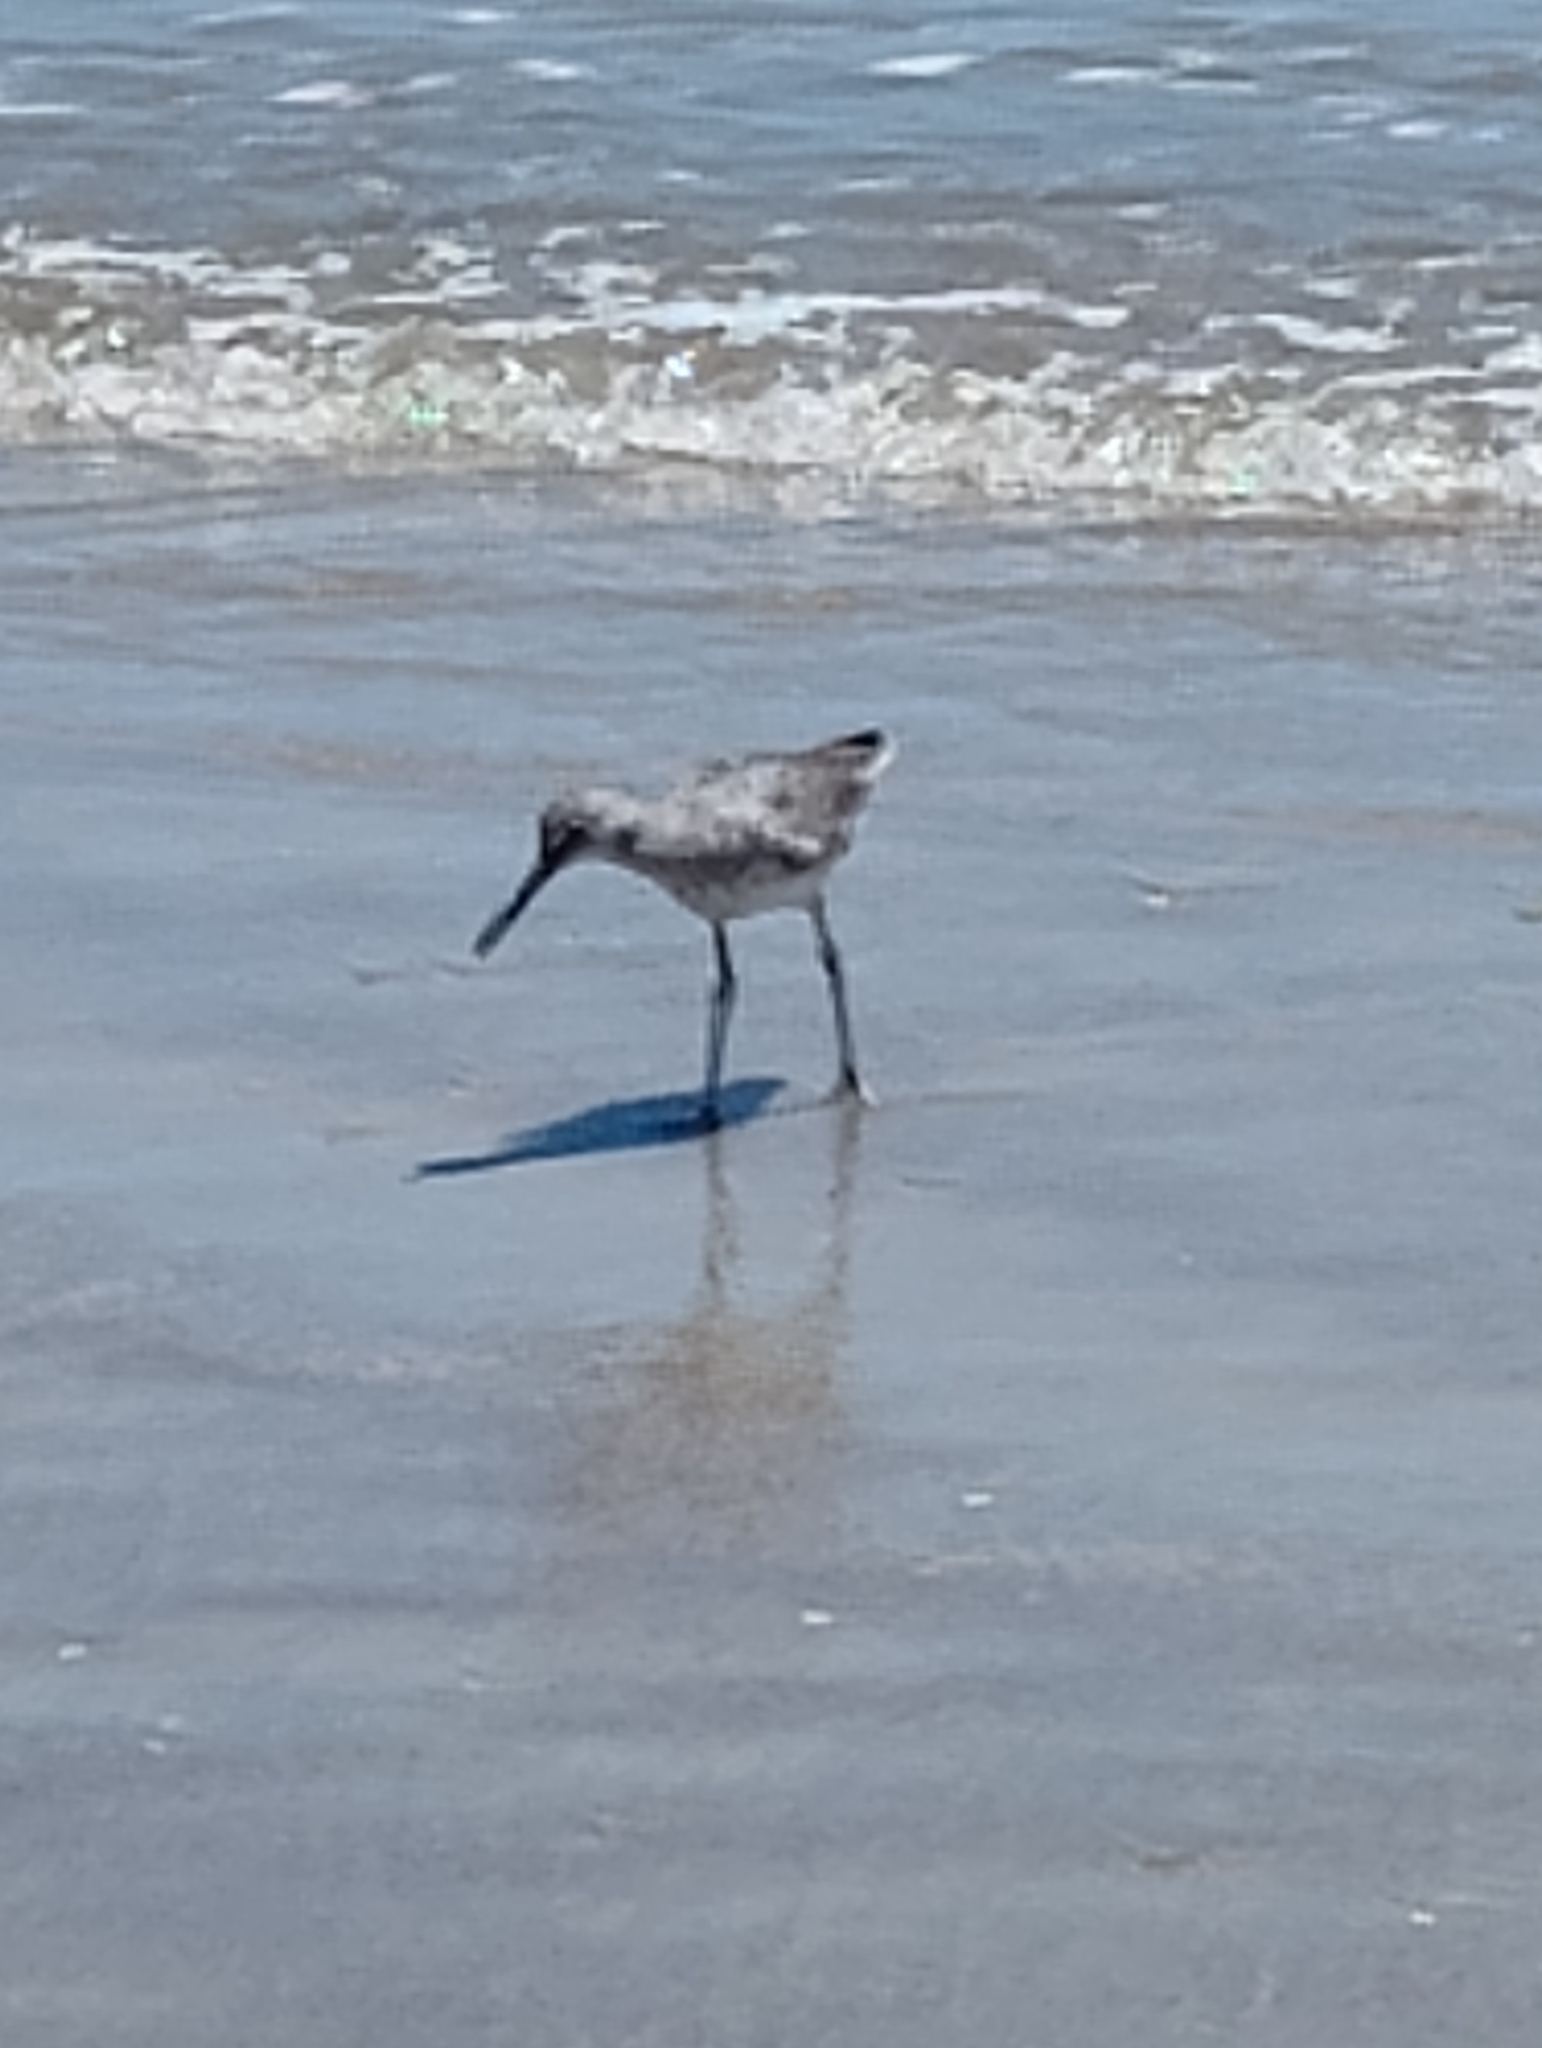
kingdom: Animalia
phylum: Chordata
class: Aves
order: Charadriiformes
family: Scolopacidae
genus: Tringa
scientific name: Tringa semipalmata
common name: Willet
